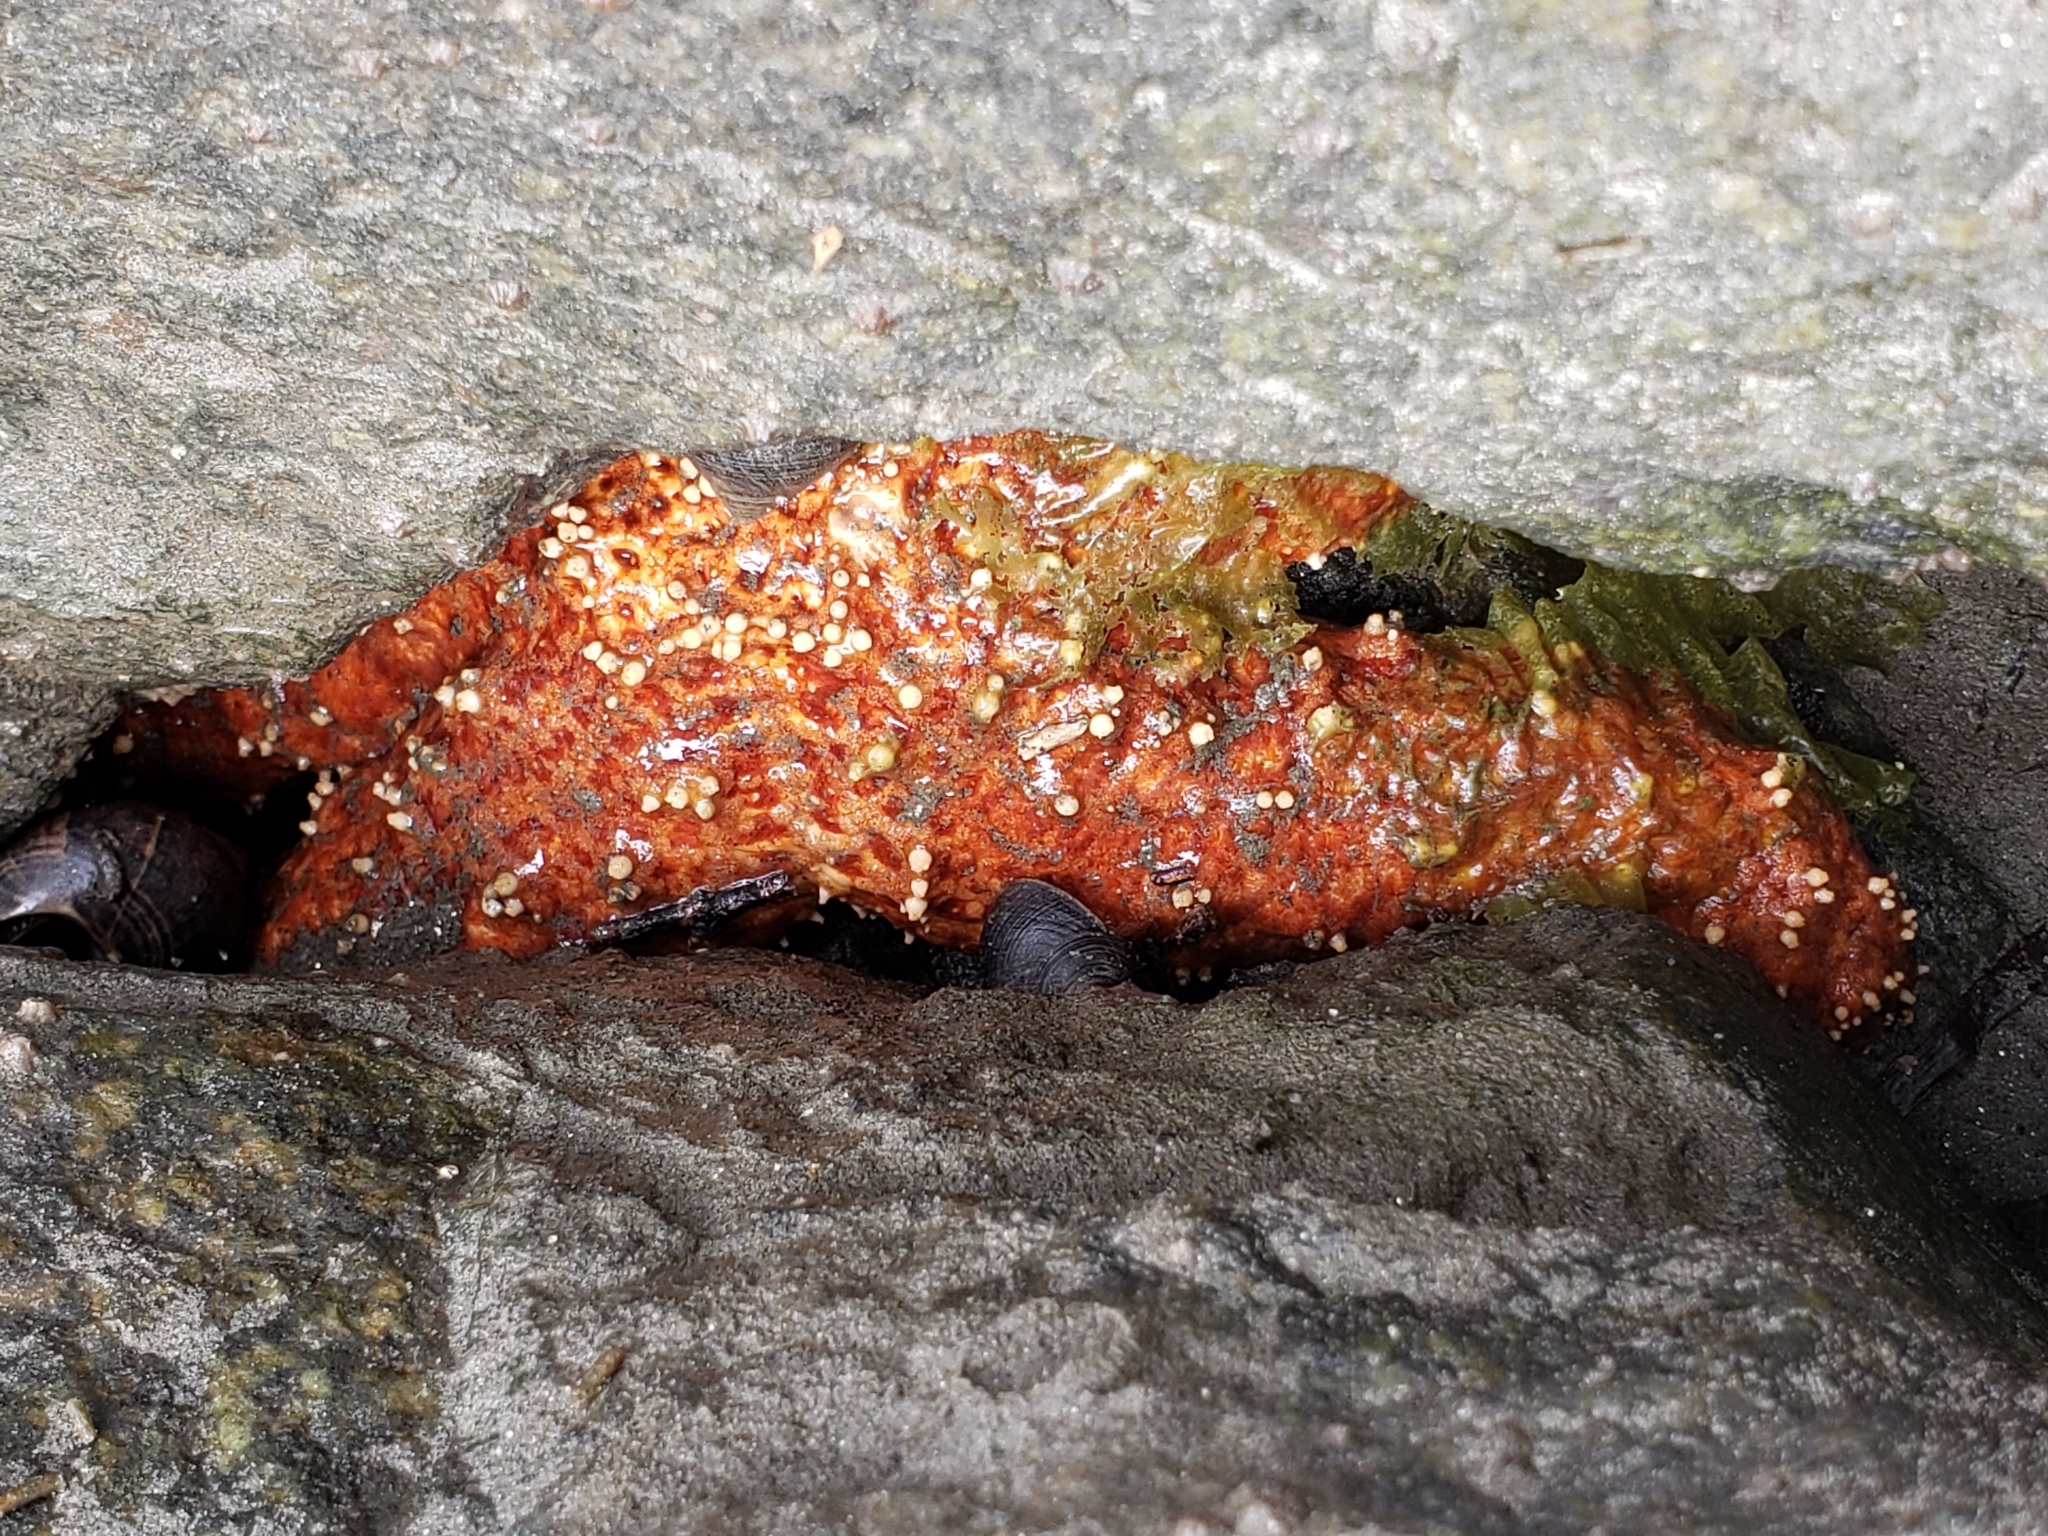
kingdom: Animalia
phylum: Echinodermata
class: Asteroidea
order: Forcipulatida
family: Asteriidae
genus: Pisaster
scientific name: Pisaster ochraceus
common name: Ochre stars
